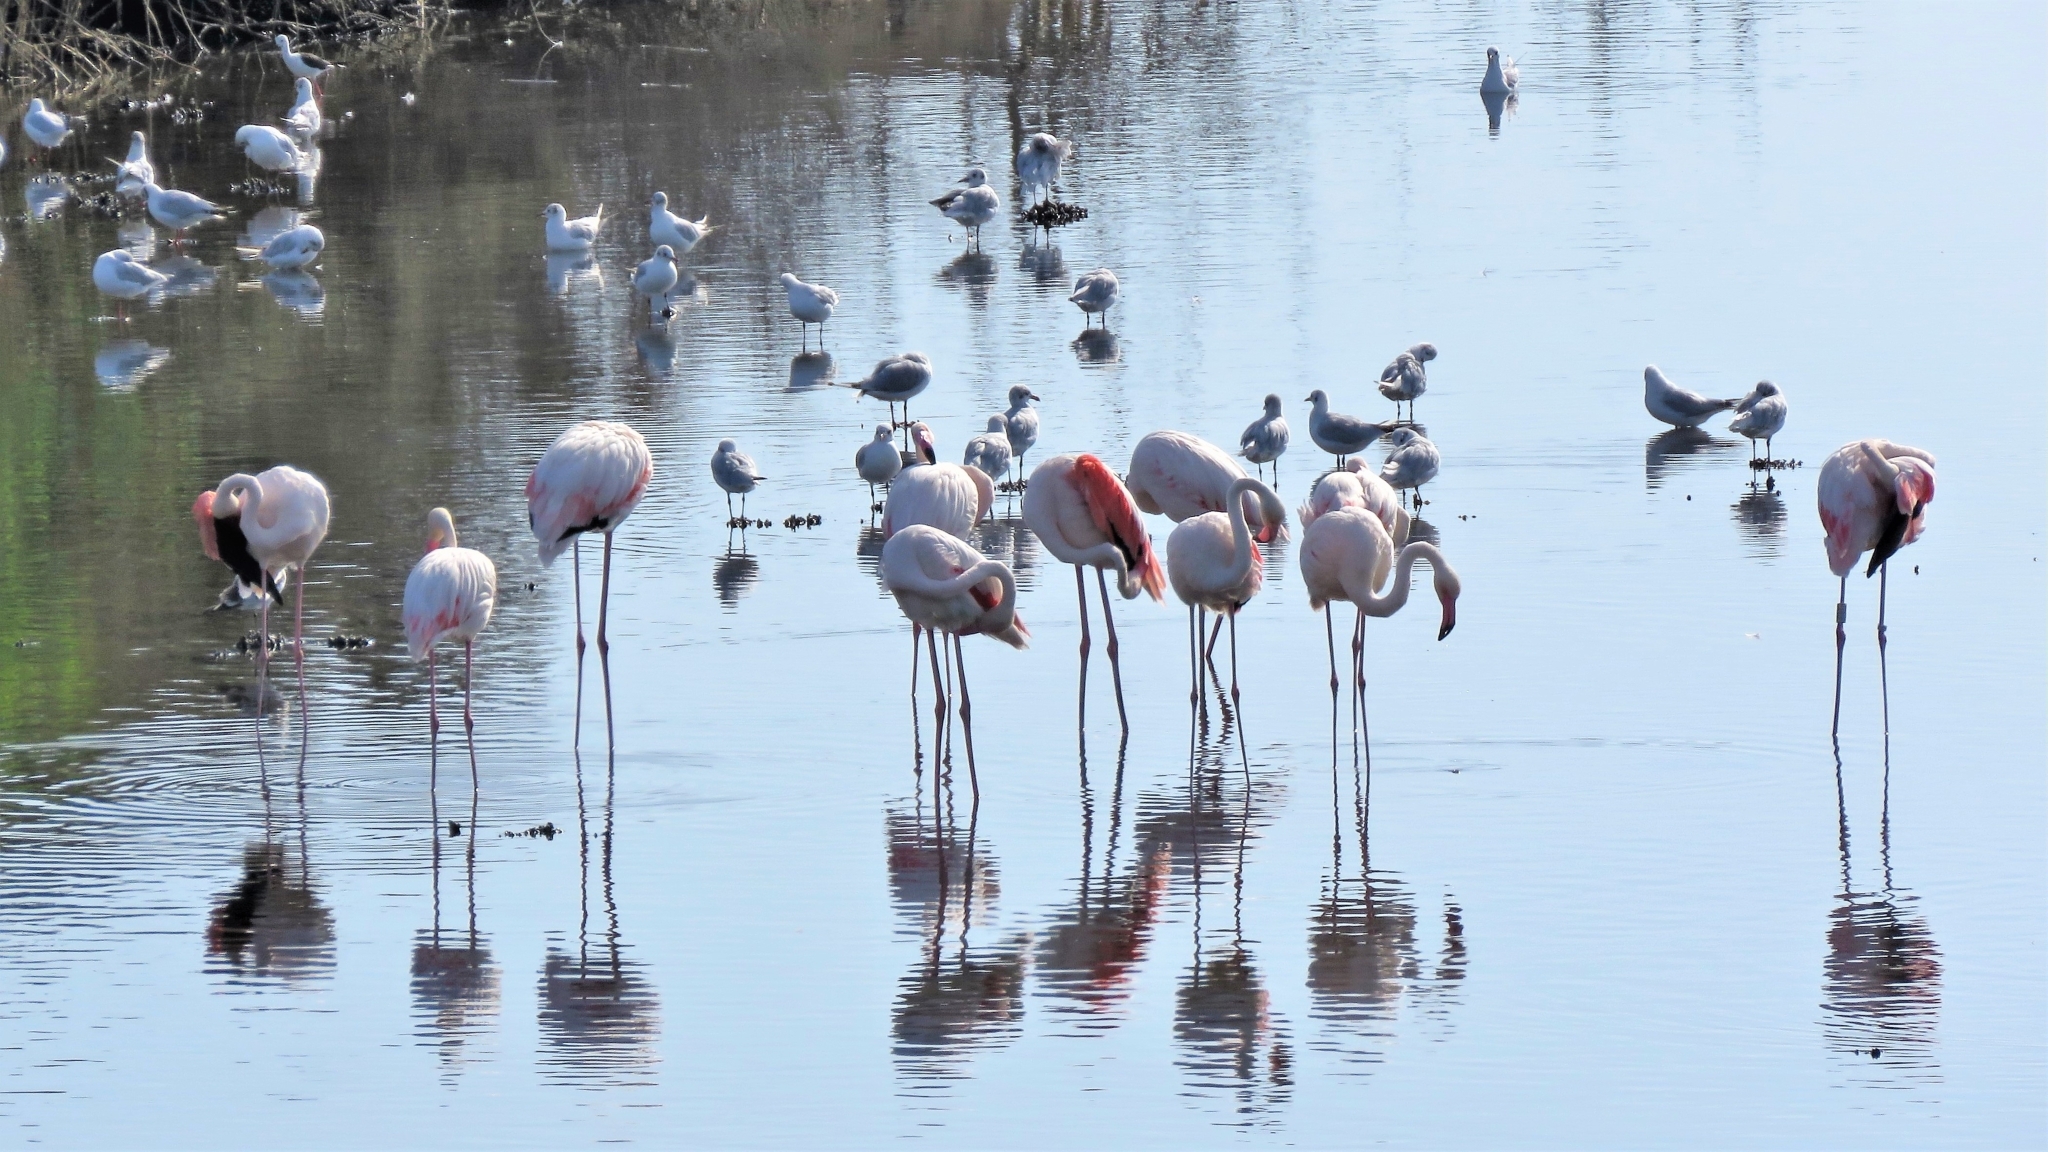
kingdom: Animalia
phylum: Chordata
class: Aves
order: Phoenicopteriformes
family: Phoenicopteridae
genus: Phoenicopterus
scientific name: Phoenicopterus roseus
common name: Greater flamingo
